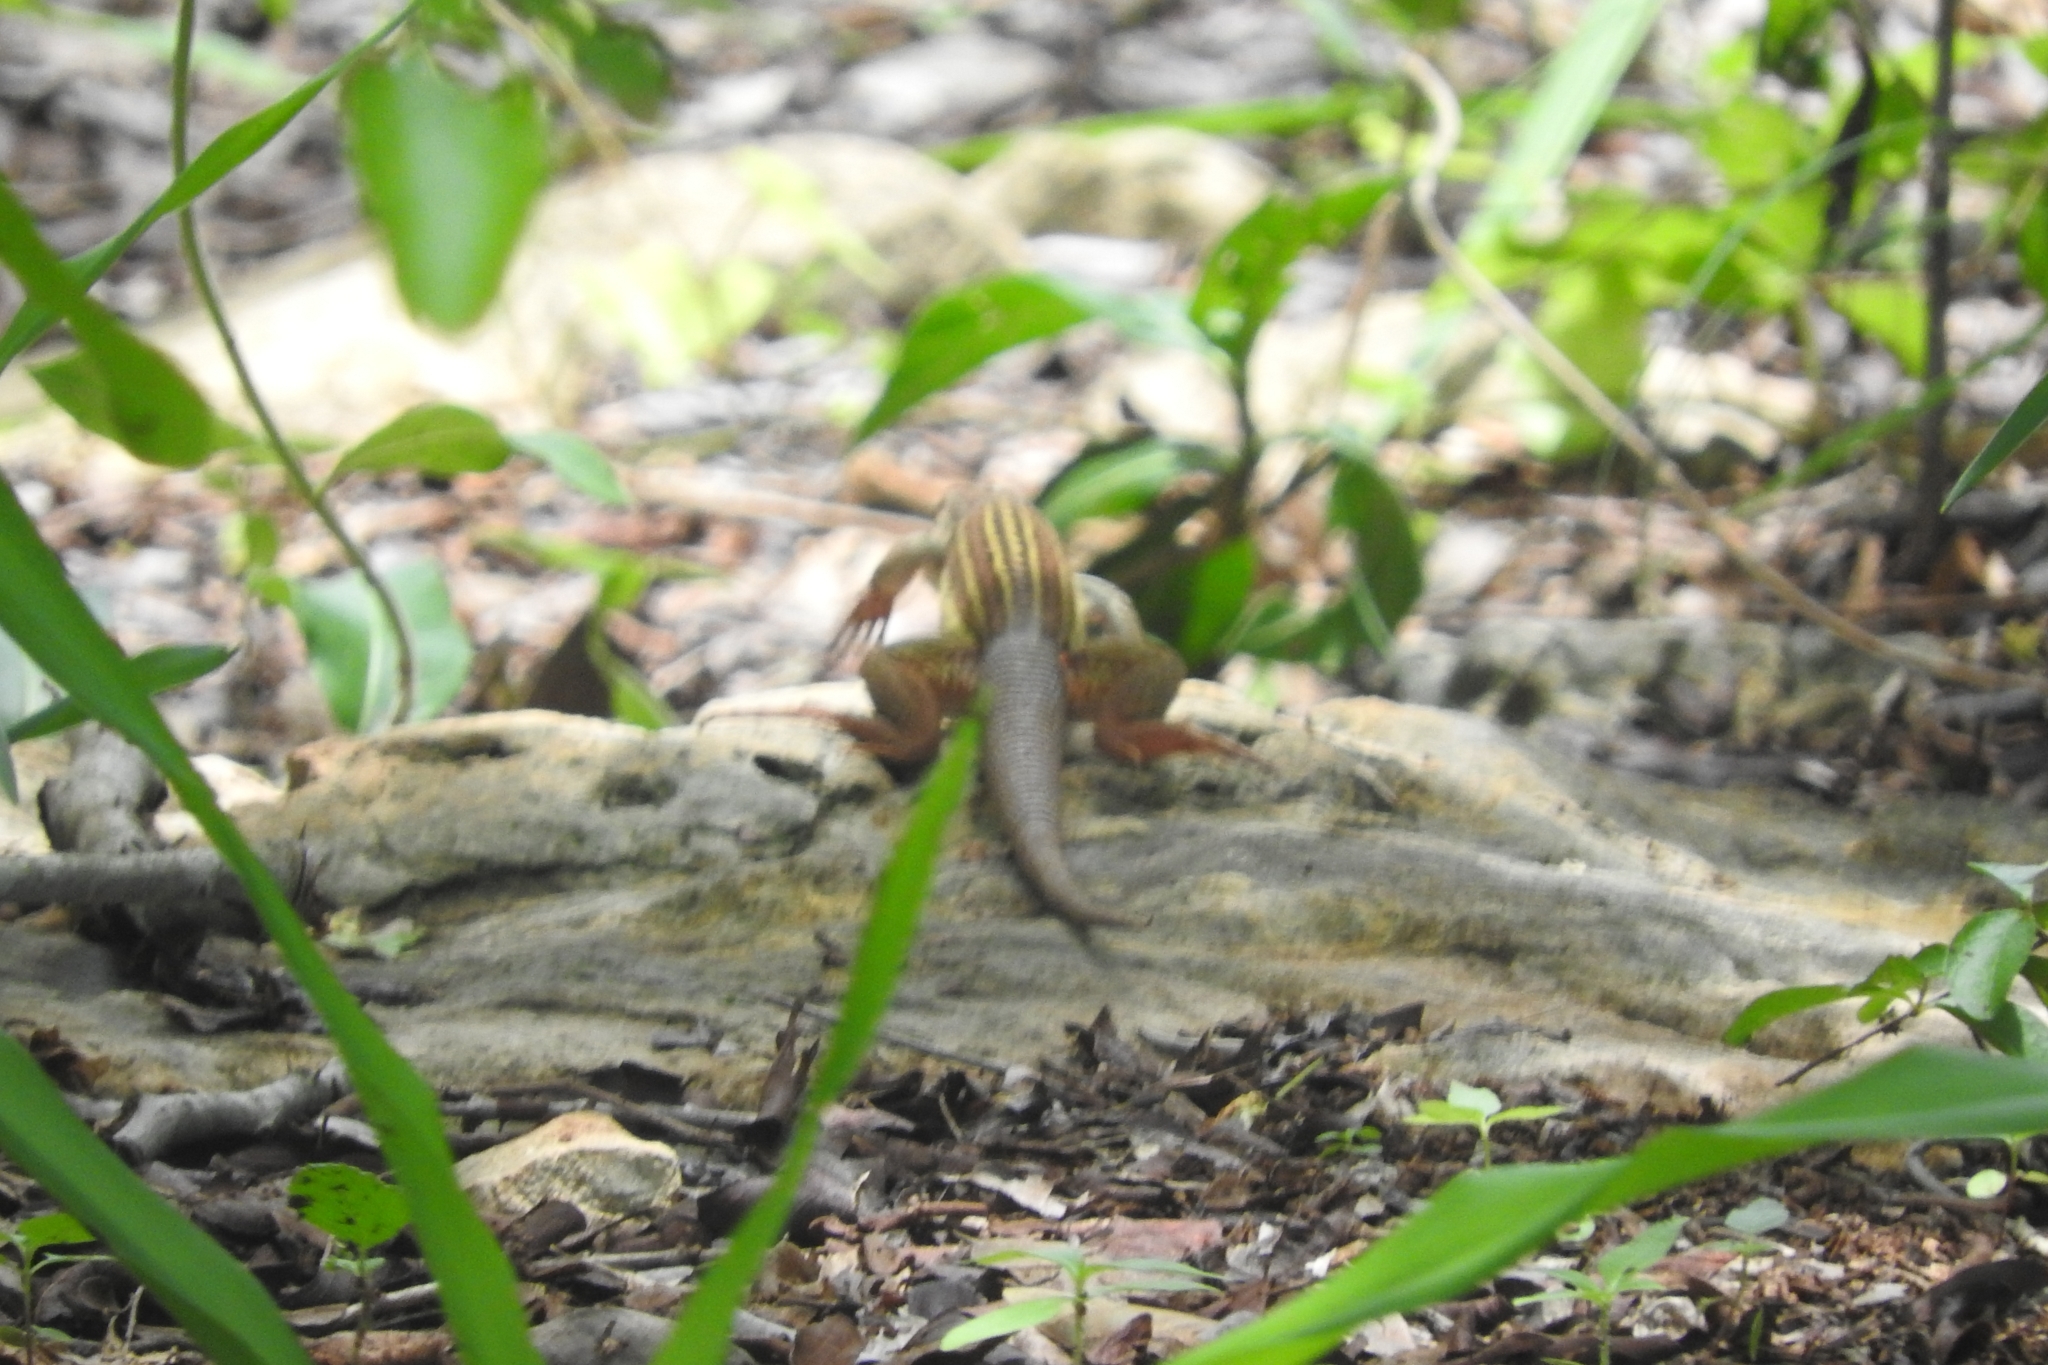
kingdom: Animalia
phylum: Chordata
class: Squamata
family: Teiidae
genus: Aspidoscelis
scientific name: Aspidoscelis angusticeps
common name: Yucatan whiptail
